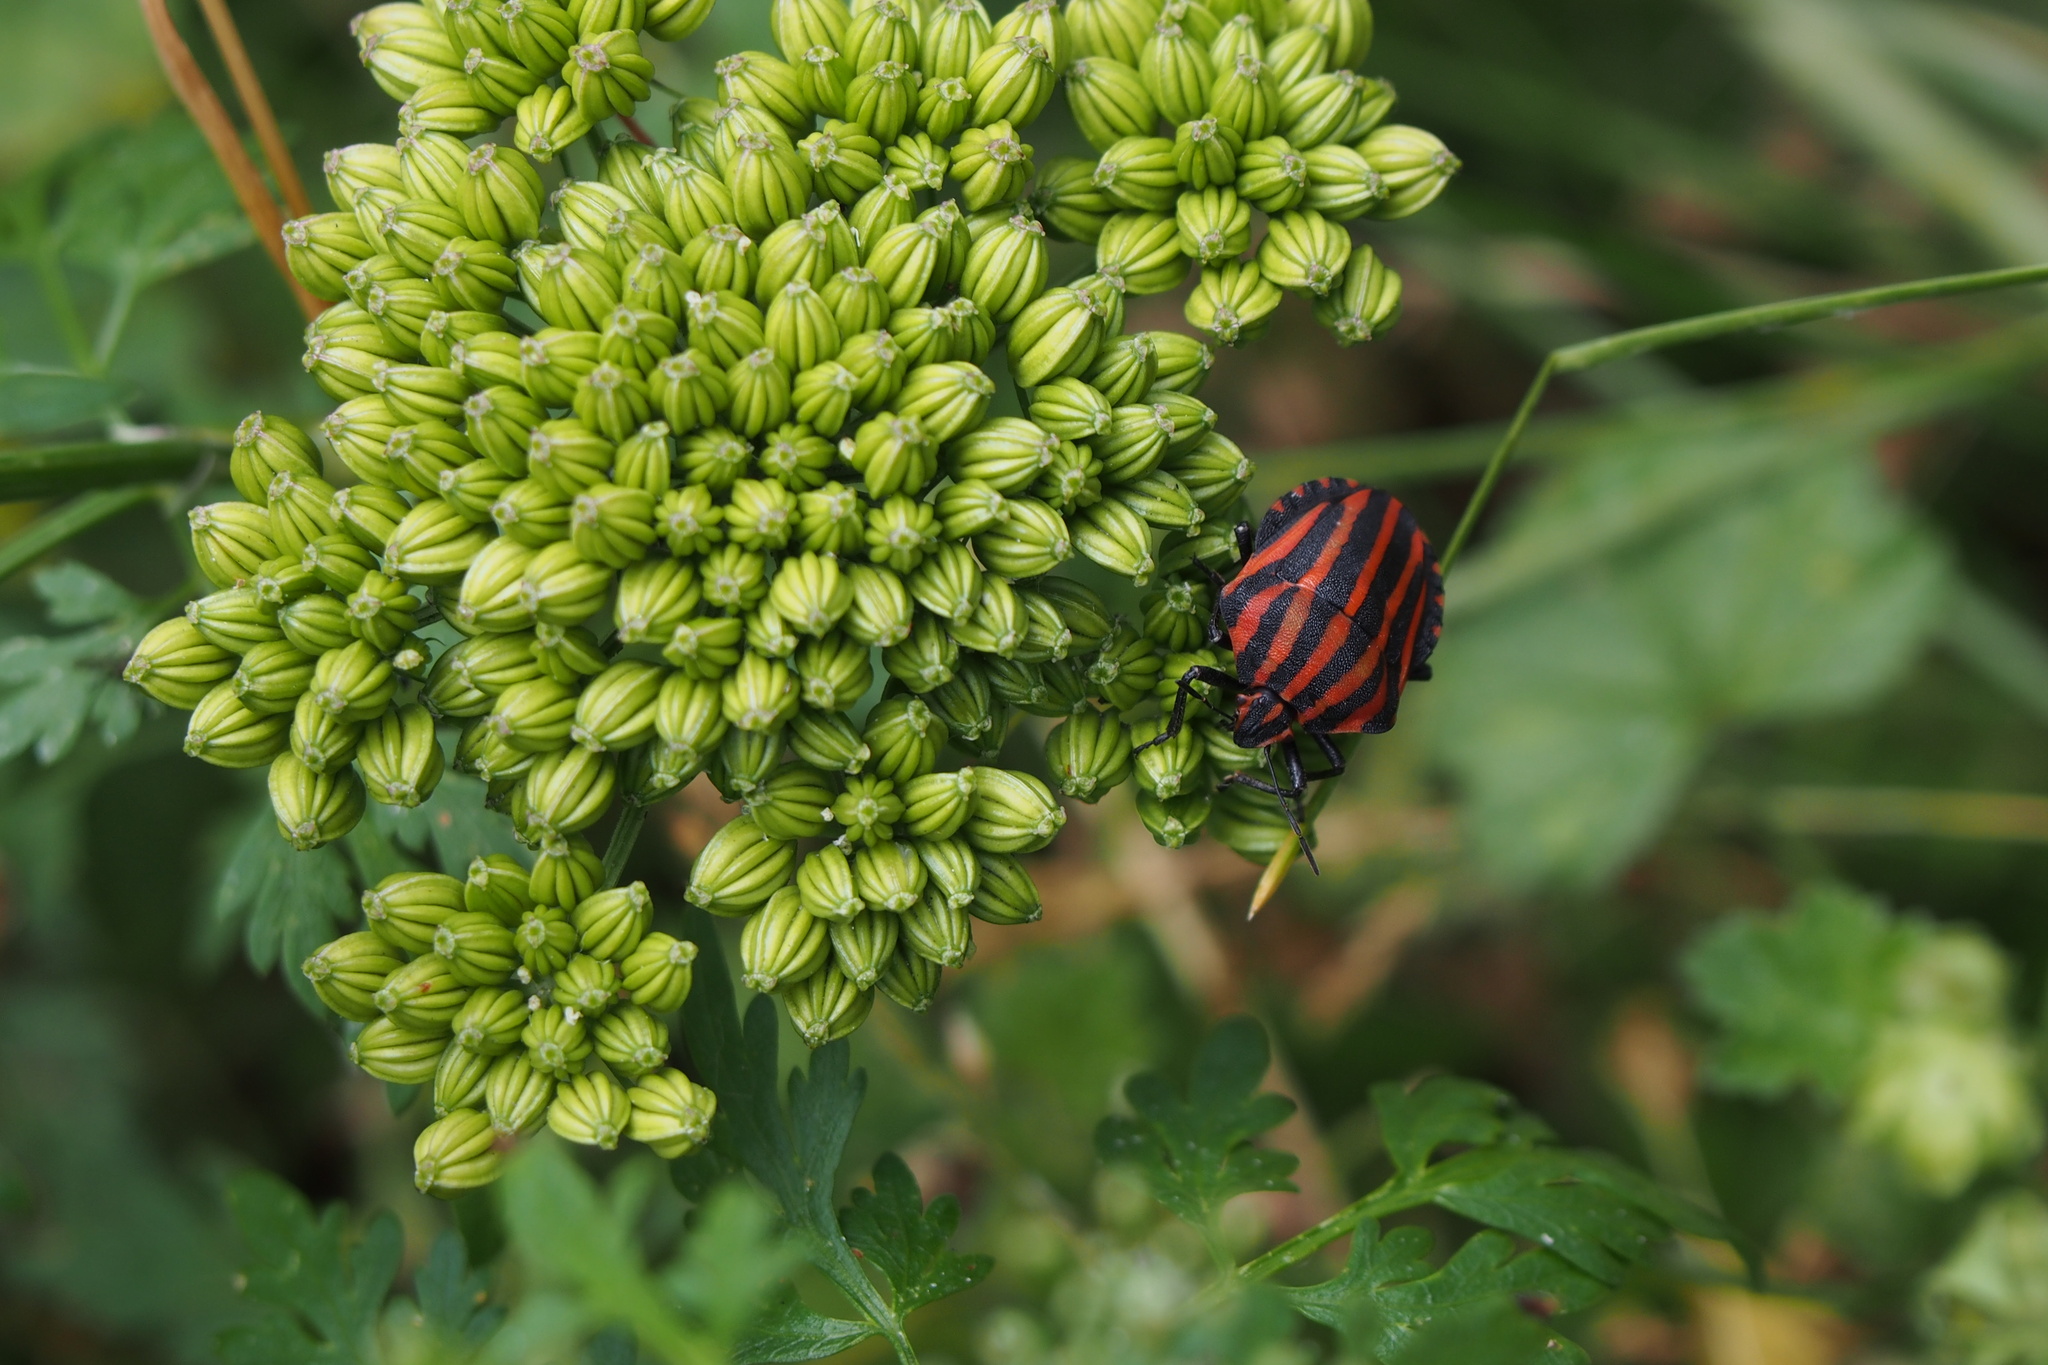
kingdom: Animalia
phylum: Arthropoda
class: Insecta
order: Hemiptera
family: Pentatomidae
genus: Graphosoma
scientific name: Graphosoma rubrolineatum
